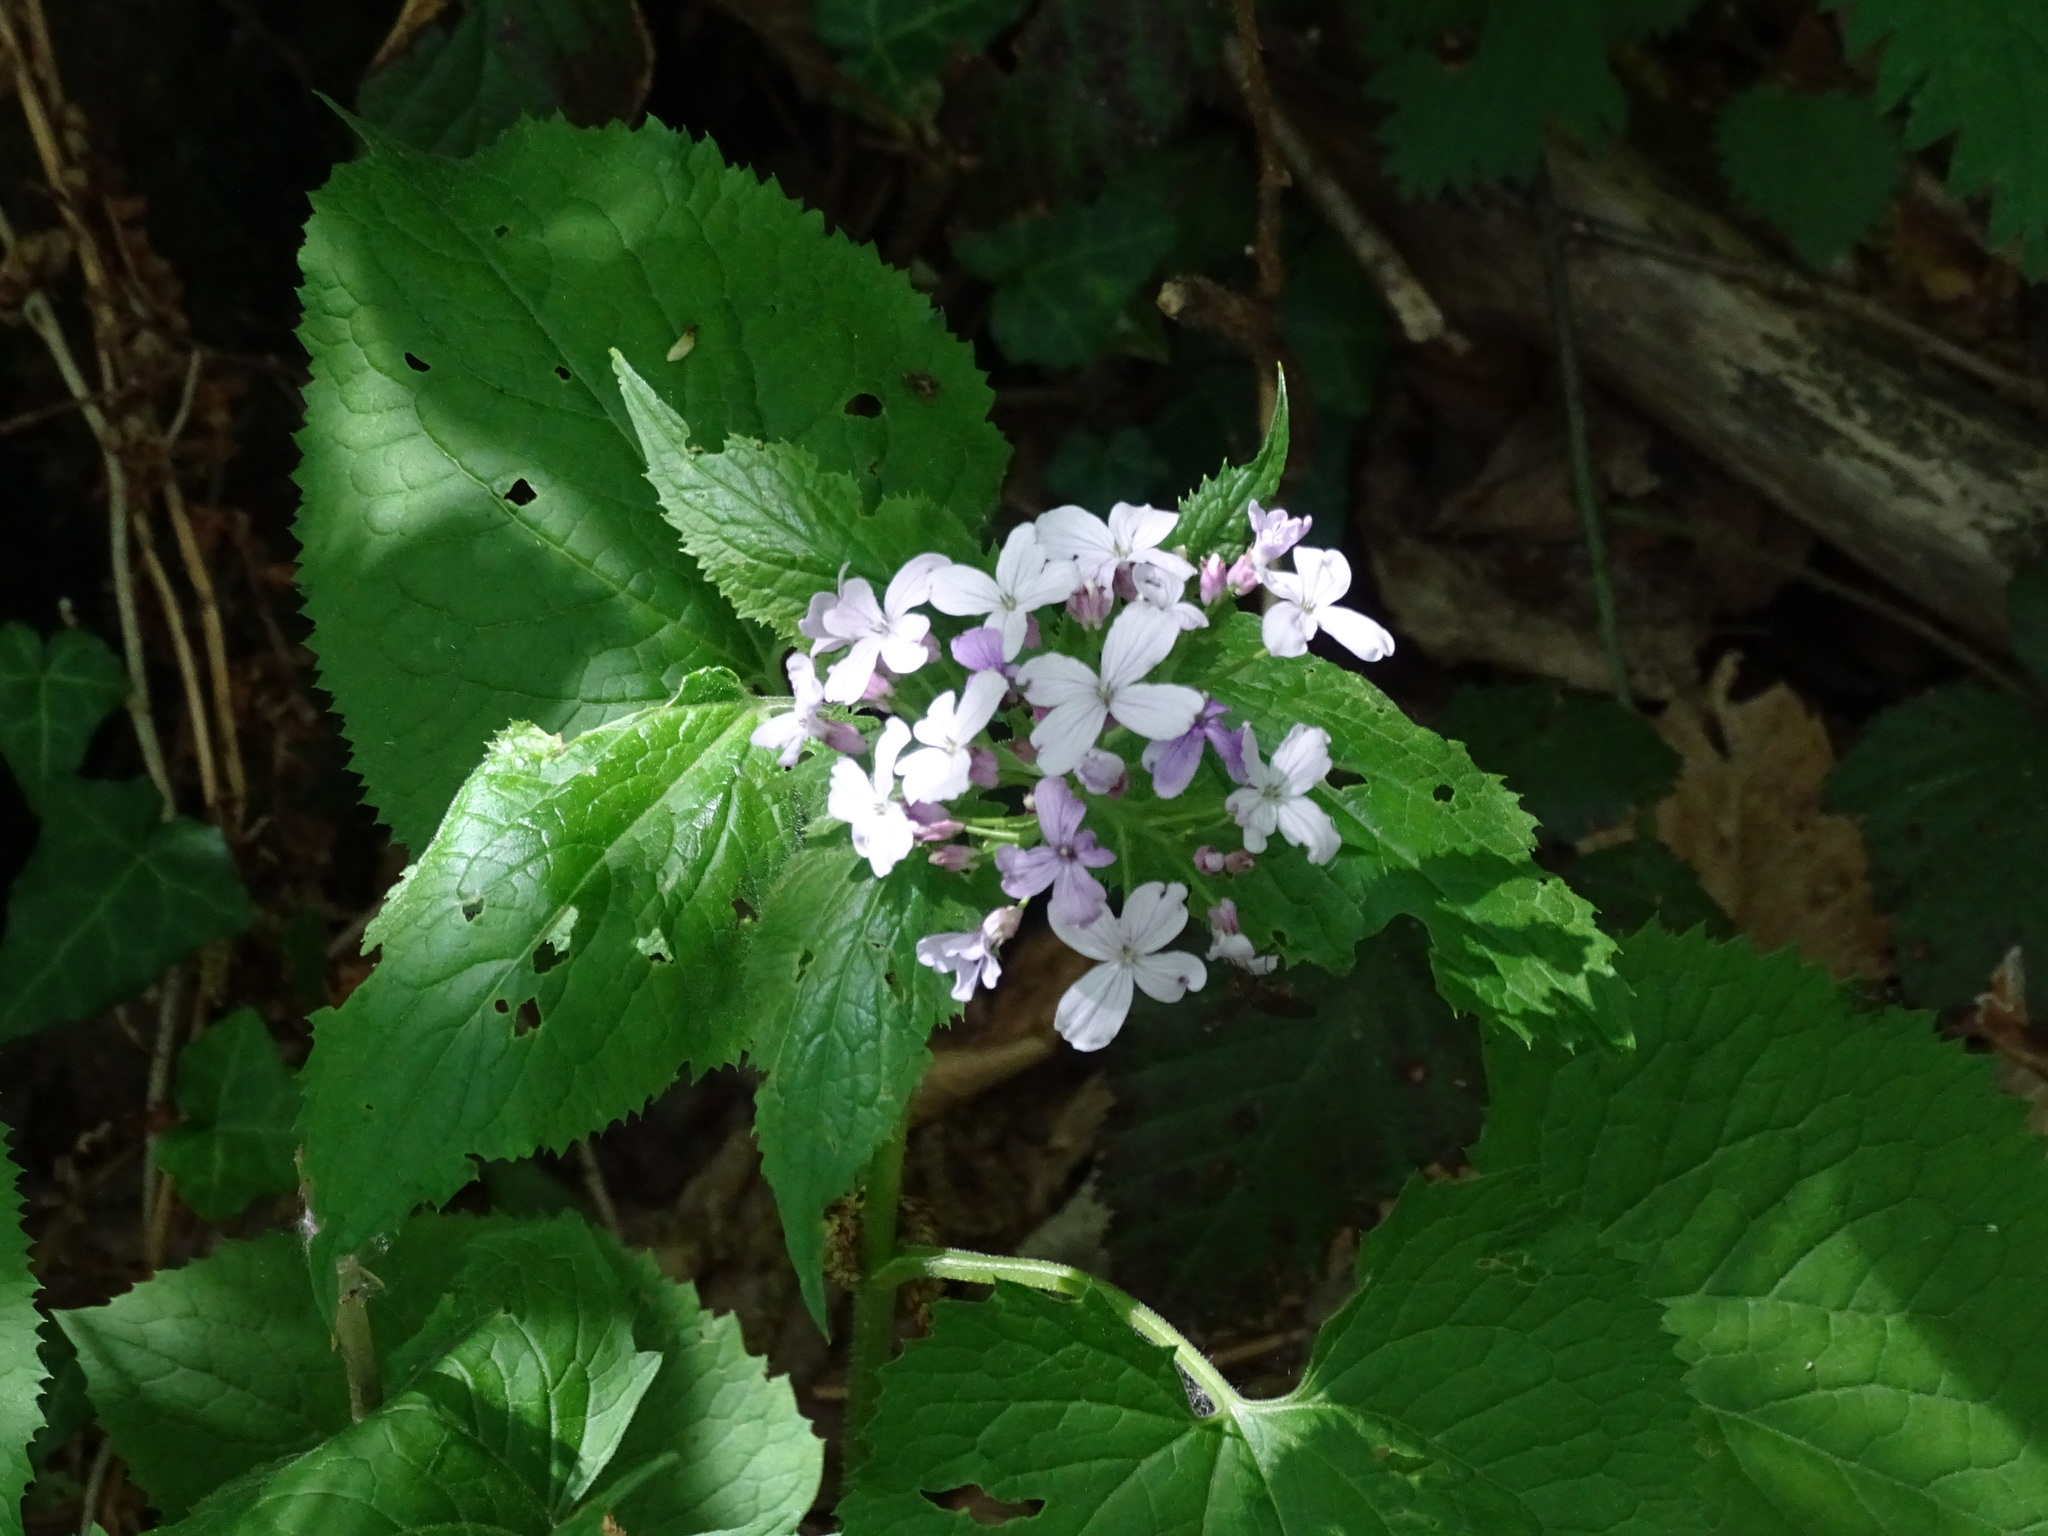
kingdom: Plantae
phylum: Tracheophyta
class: Magnoliopsida
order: Brassicales
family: Brassicaceae
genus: Lunaria
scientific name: Lunaria rediviva
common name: Perennial honesty
